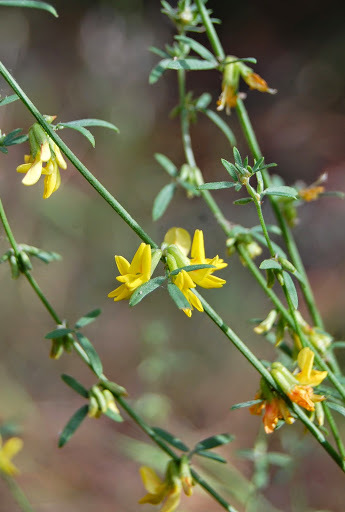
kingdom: Plantae
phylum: Tracheophyta
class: Magnoliopsida
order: Fabales
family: Fabaceae
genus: Acmispon
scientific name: Acmispon glaber
